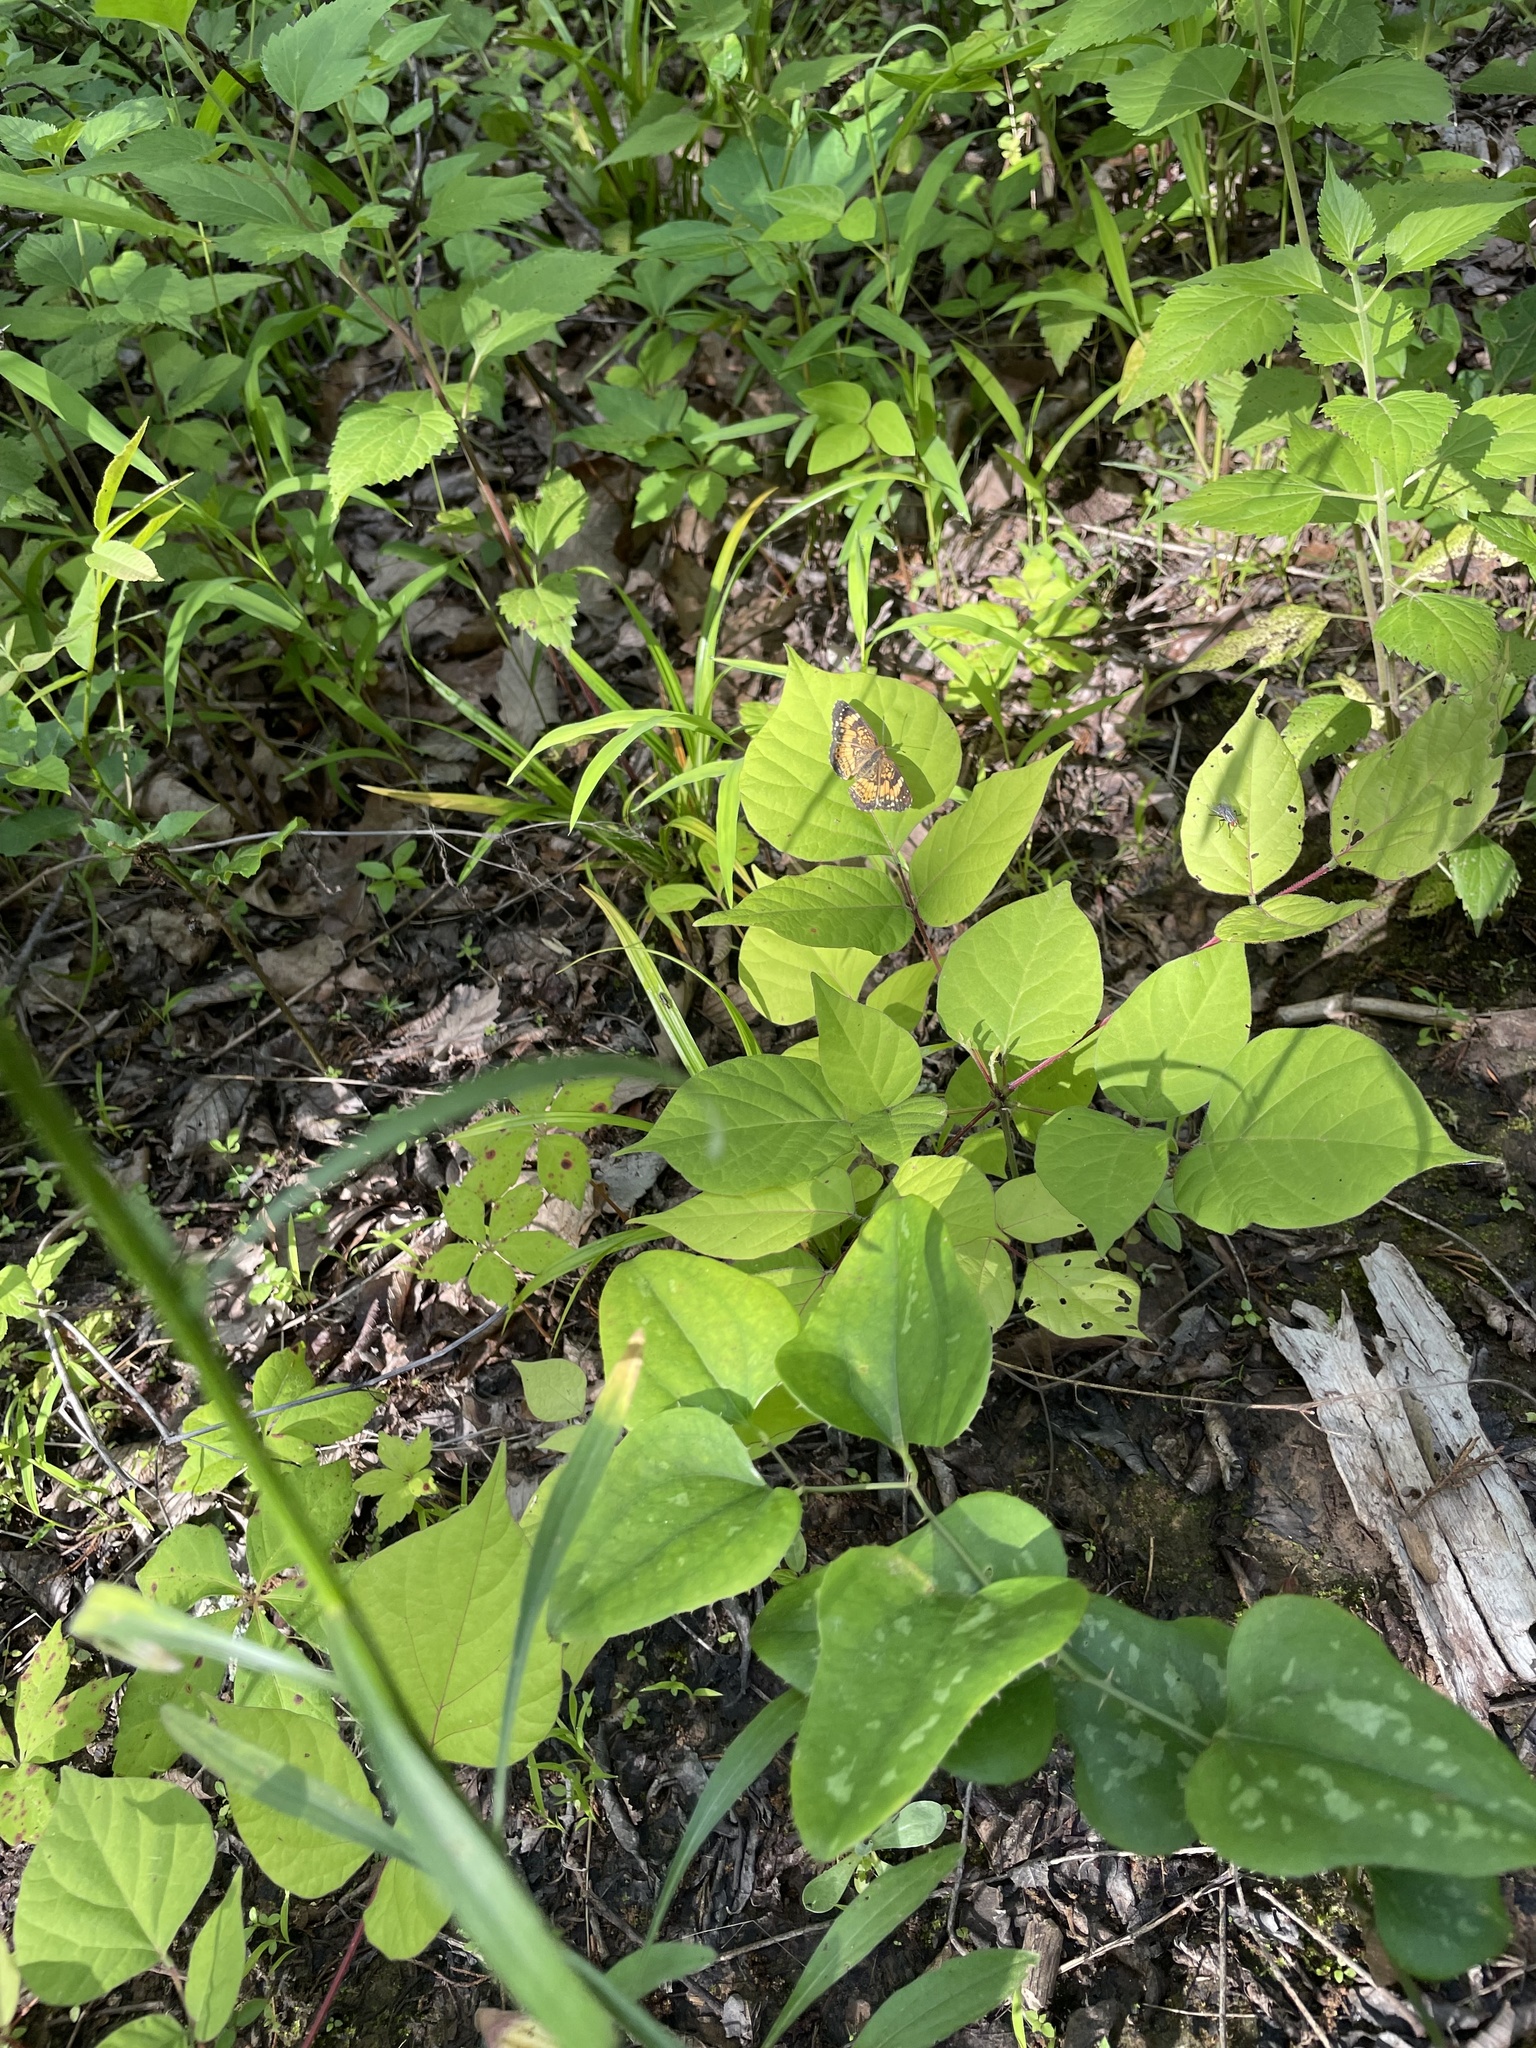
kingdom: Animalia
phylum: Arthropoda
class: Insecta
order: Lepidoptera
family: Nymphalidae
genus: Chlosyne
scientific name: Chlosyne nycteis
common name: Silvery checkerspot
